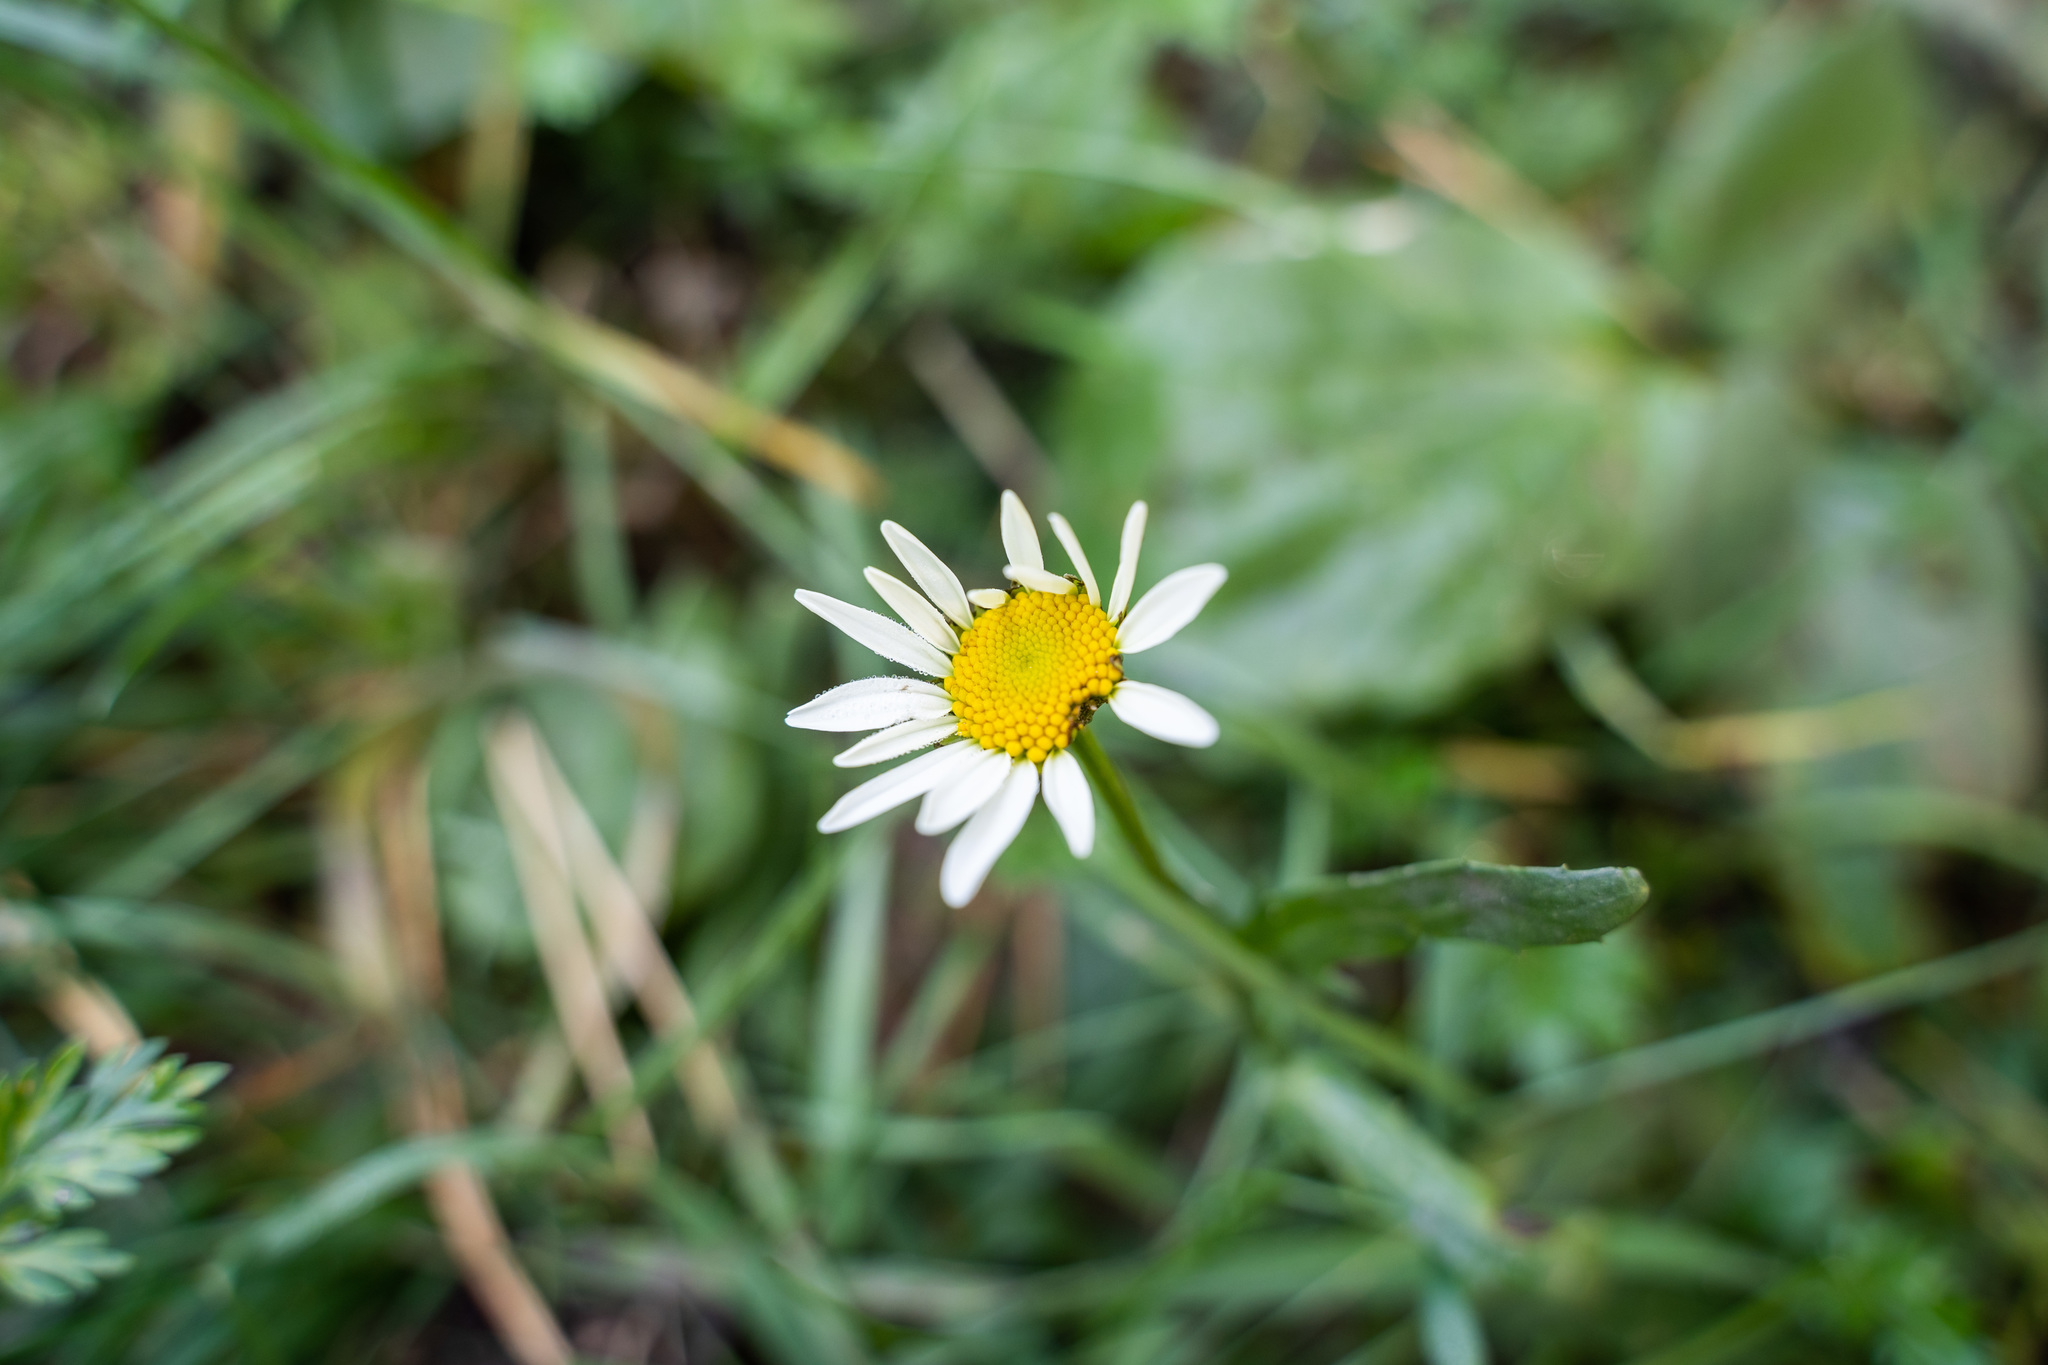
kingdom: Plantae
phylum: Tracheophyta
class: Magnoliopsida
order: Asterales
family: Asteraceae
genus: Leucanthemum
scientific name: Leucanthemum vulgare
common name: Oxeye daisy
